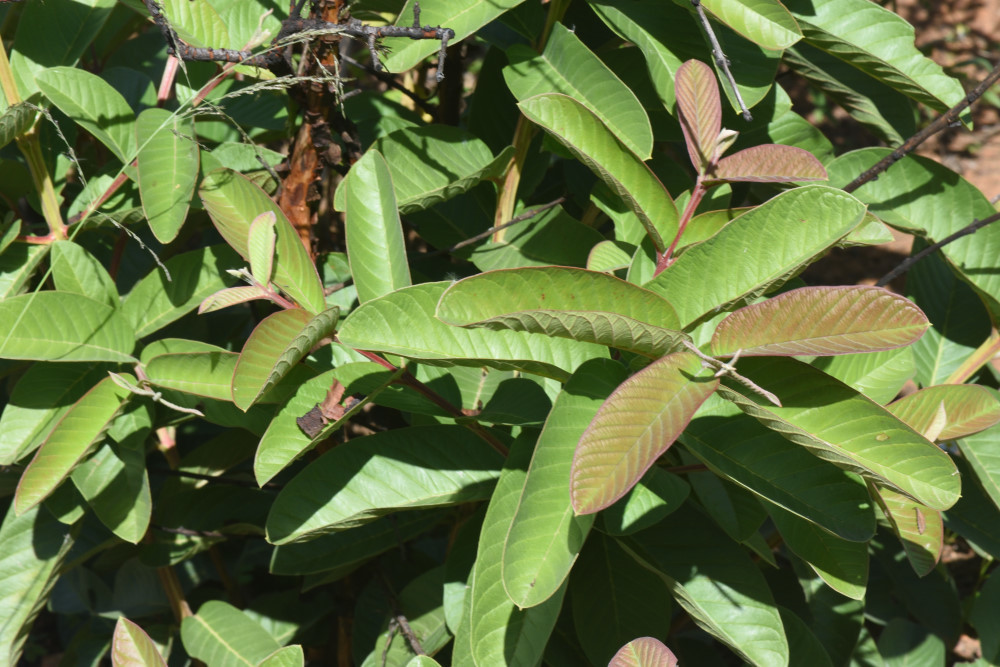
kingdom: Plantae
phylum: Tracheophyta
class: Magnoliopsida
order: Myrtales
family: Myrtaceae
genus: Psidium
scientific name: Psidium guajava
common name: Guava
